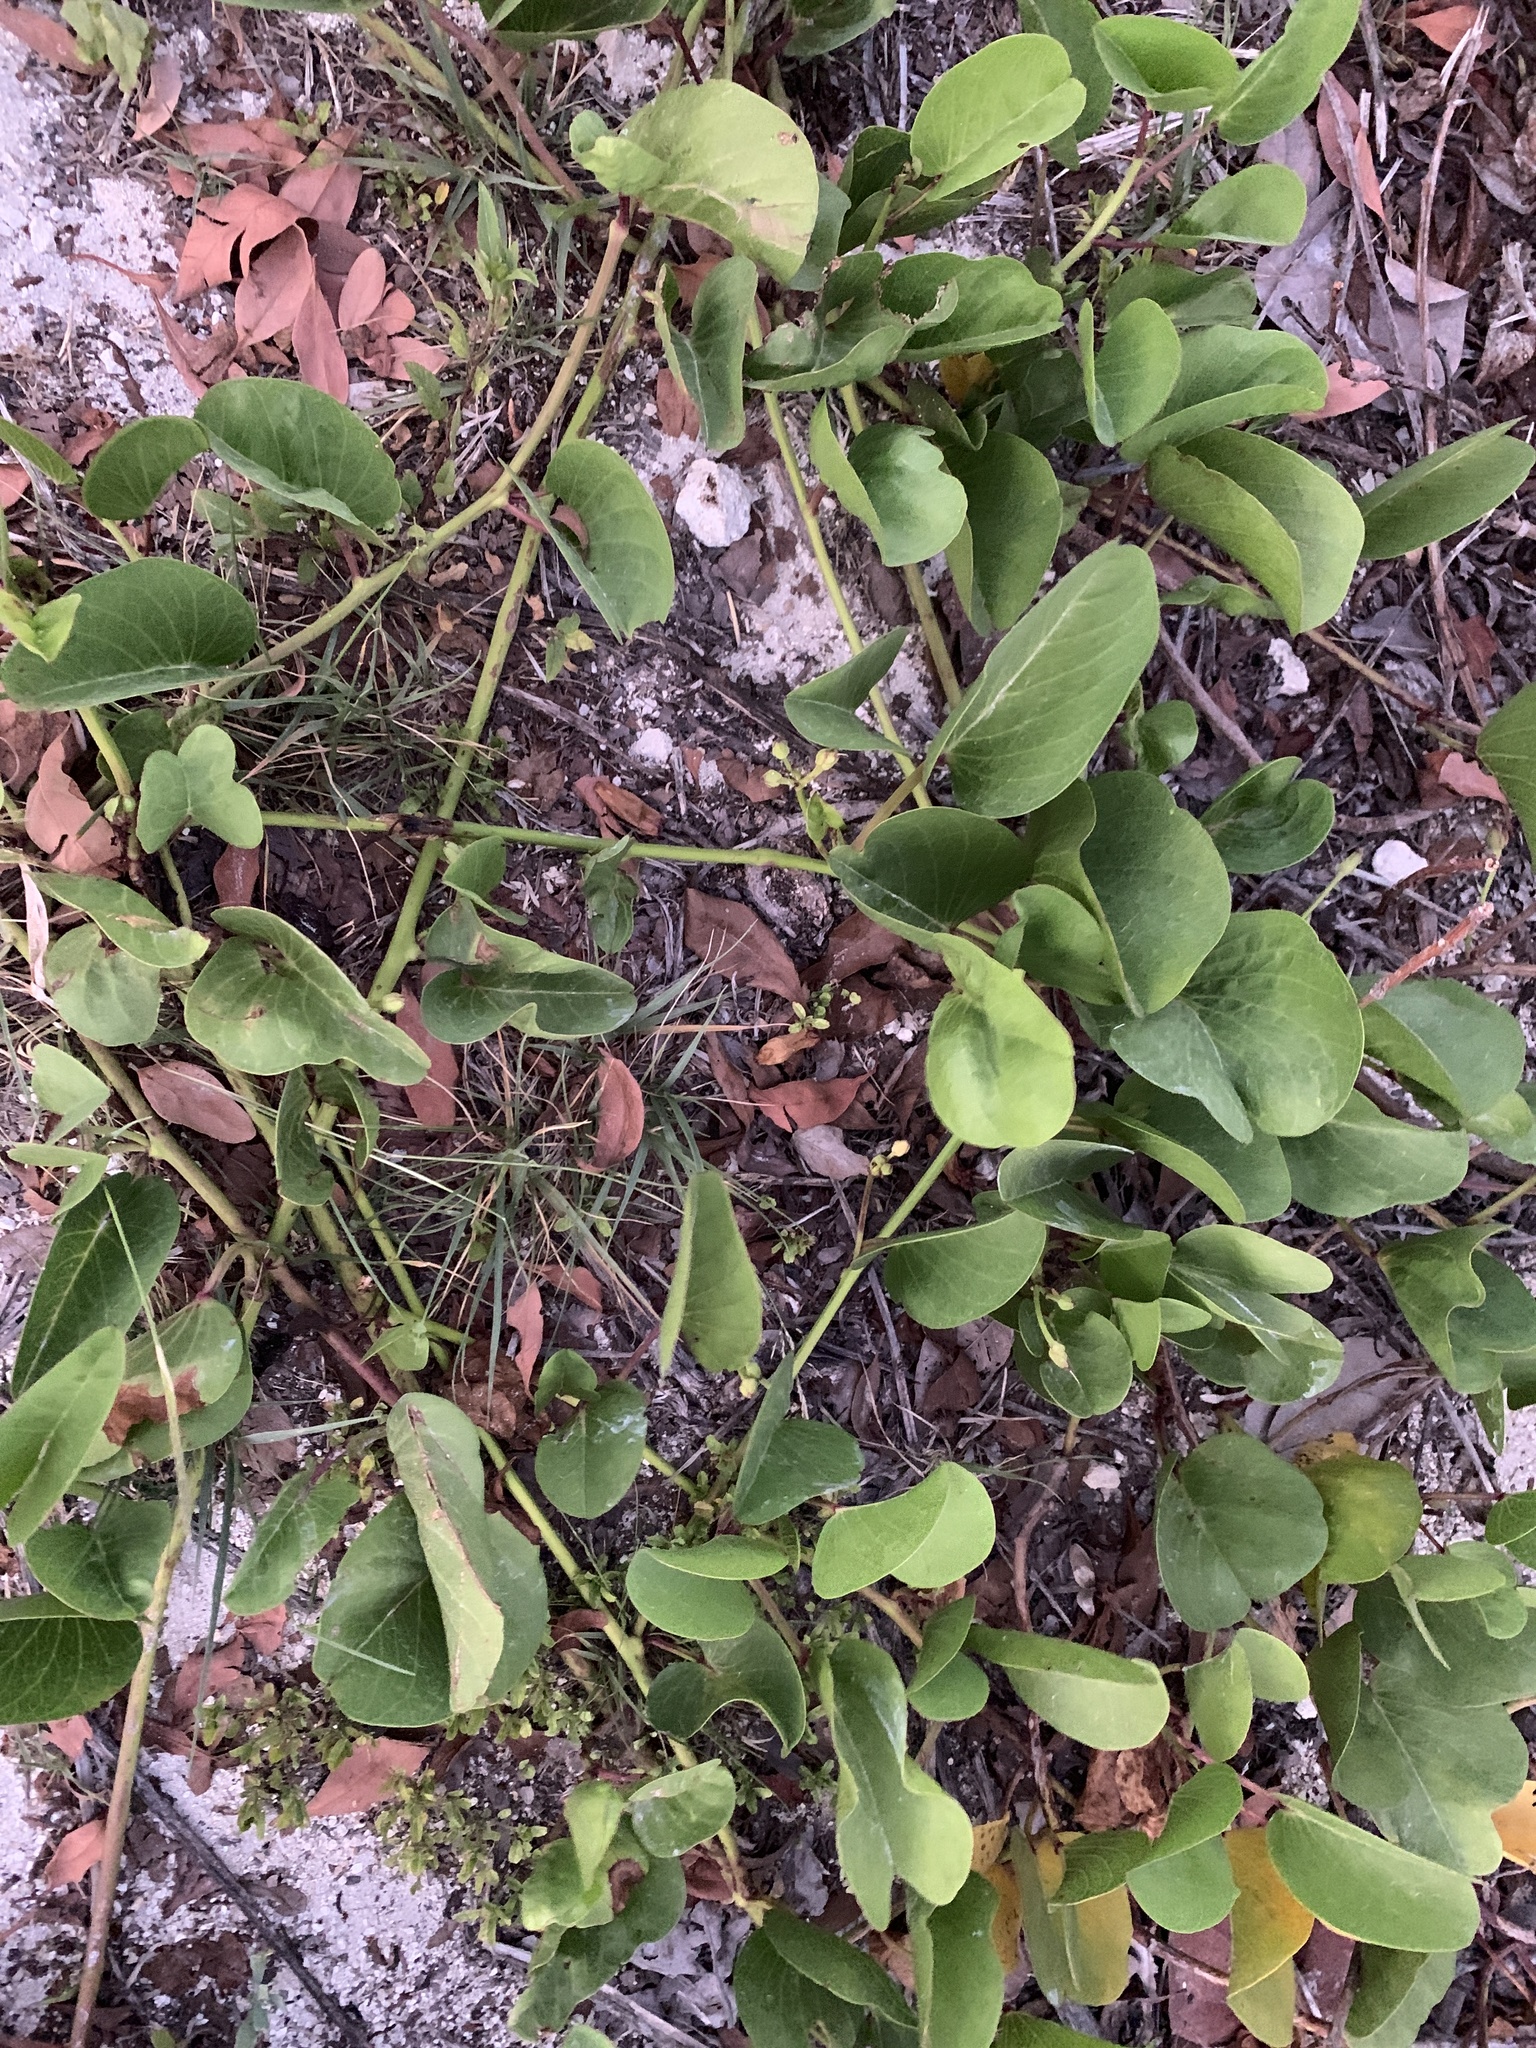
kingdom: Plantae
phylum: Tracheophyta
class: Magnoliopsida
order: Fabales
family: Fabaceae
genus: Canavalia
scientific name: Canavalia rosea
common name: Beach-bean
